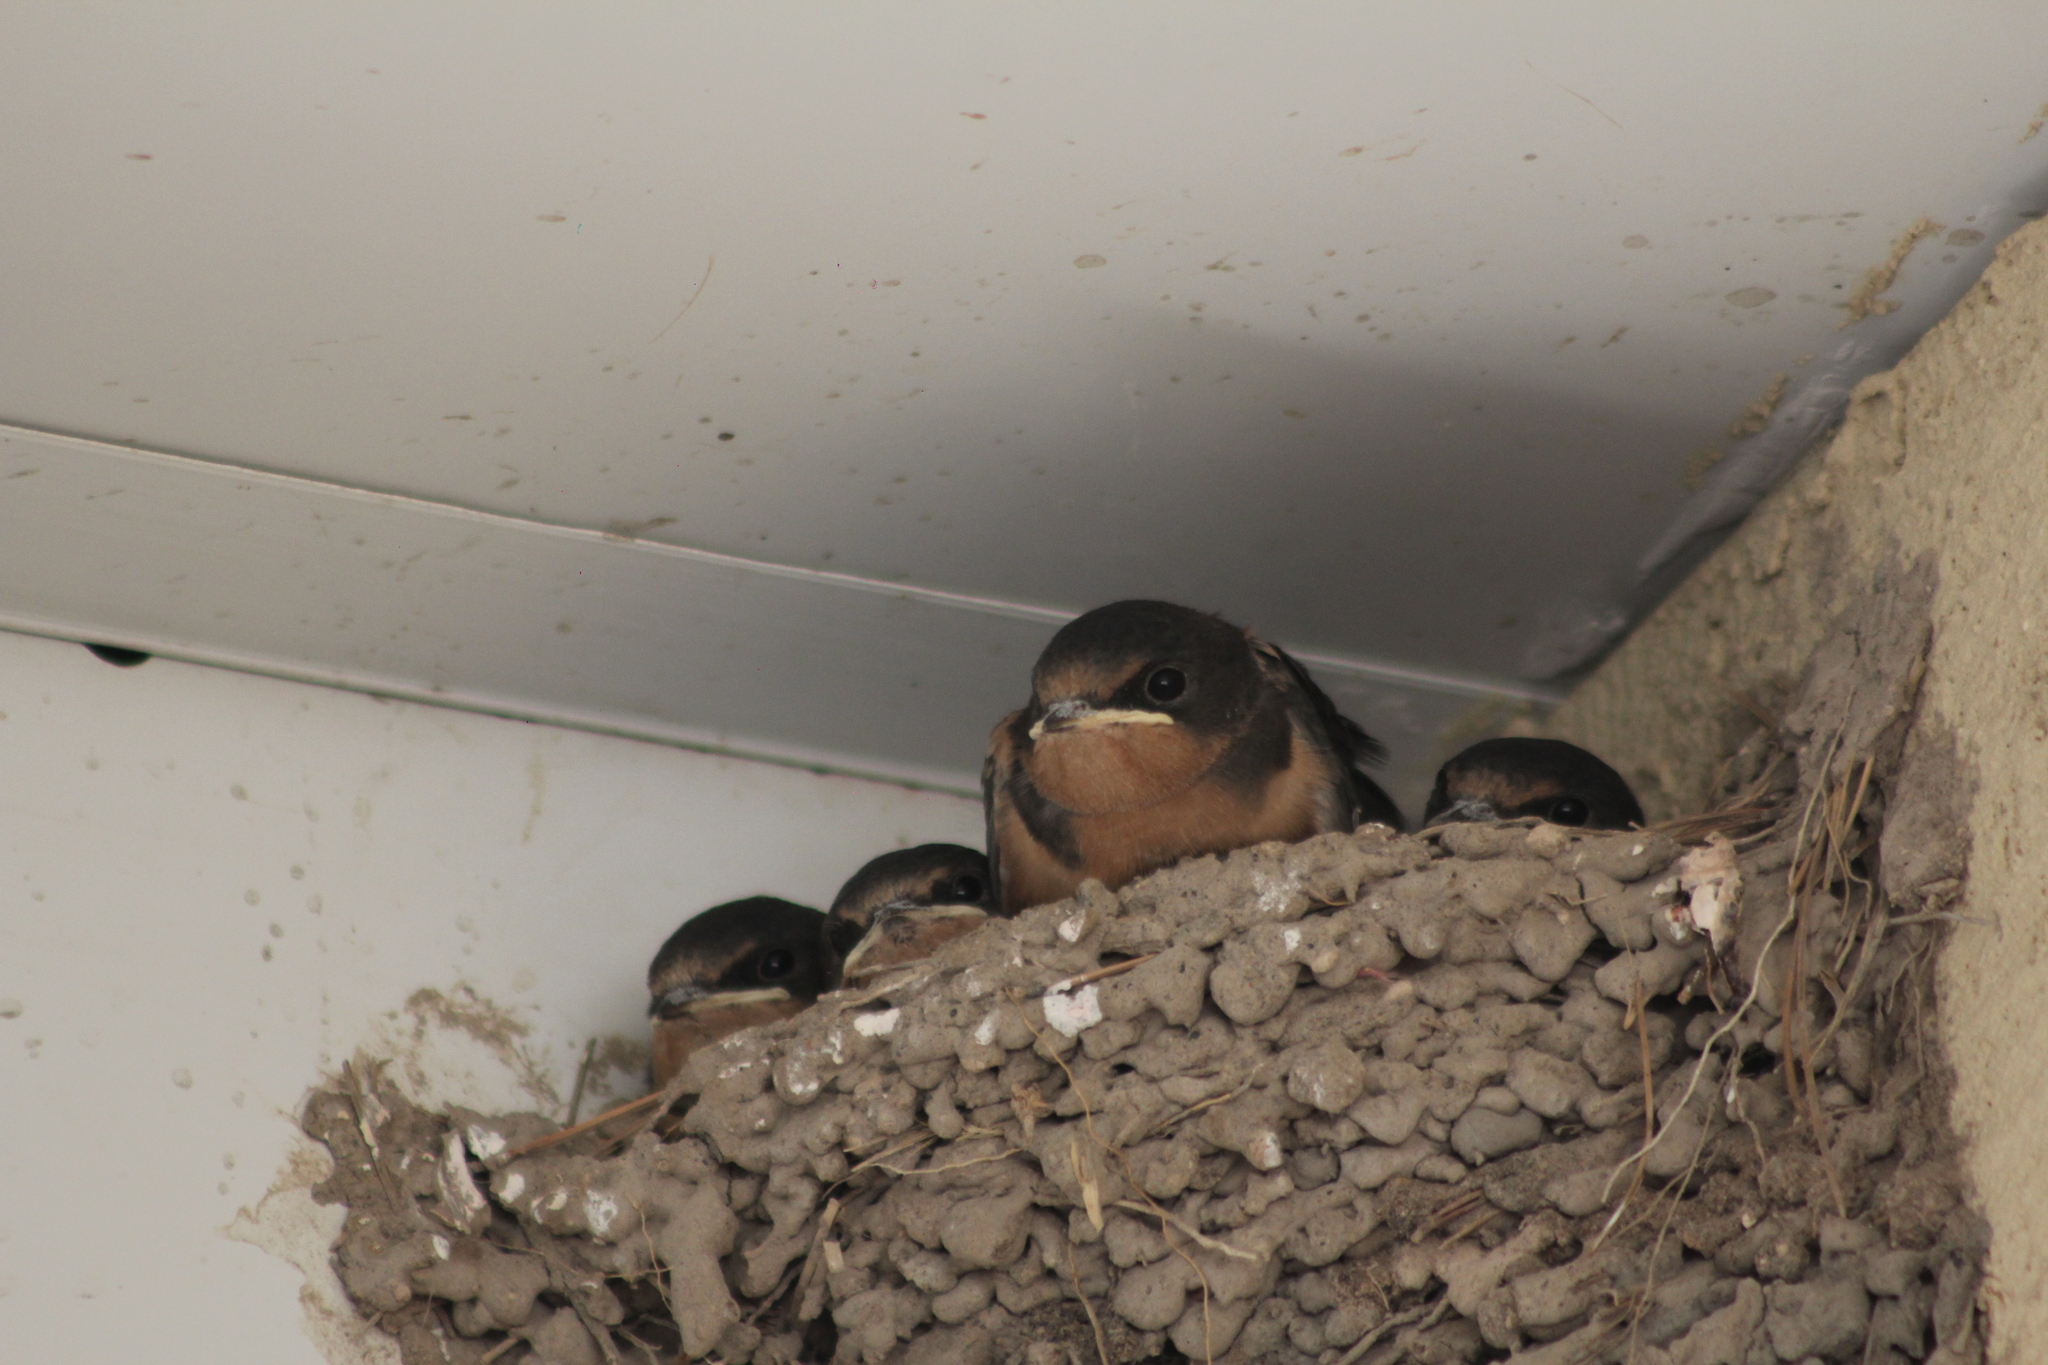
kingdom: Animalia
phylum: Chordata
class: Aves
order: Passeriformes
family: Hirundinidae
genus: Hirundo
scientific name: Hirundo rustica
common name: Barn swallow
